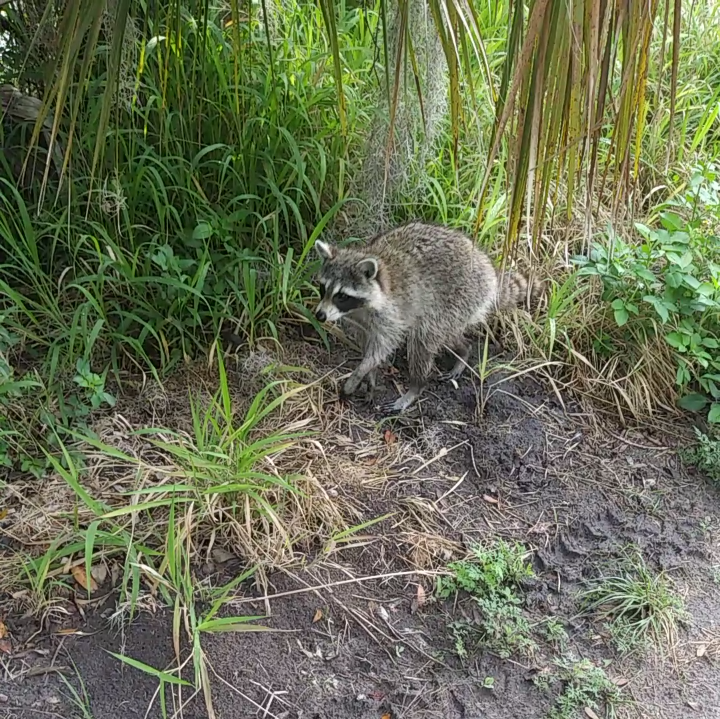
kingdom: Animalia
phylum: Chordata
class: Mammalia
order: Carnivora
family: Procyonidae
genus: Procyon
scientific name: Procyon lotor
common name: Raccoon
